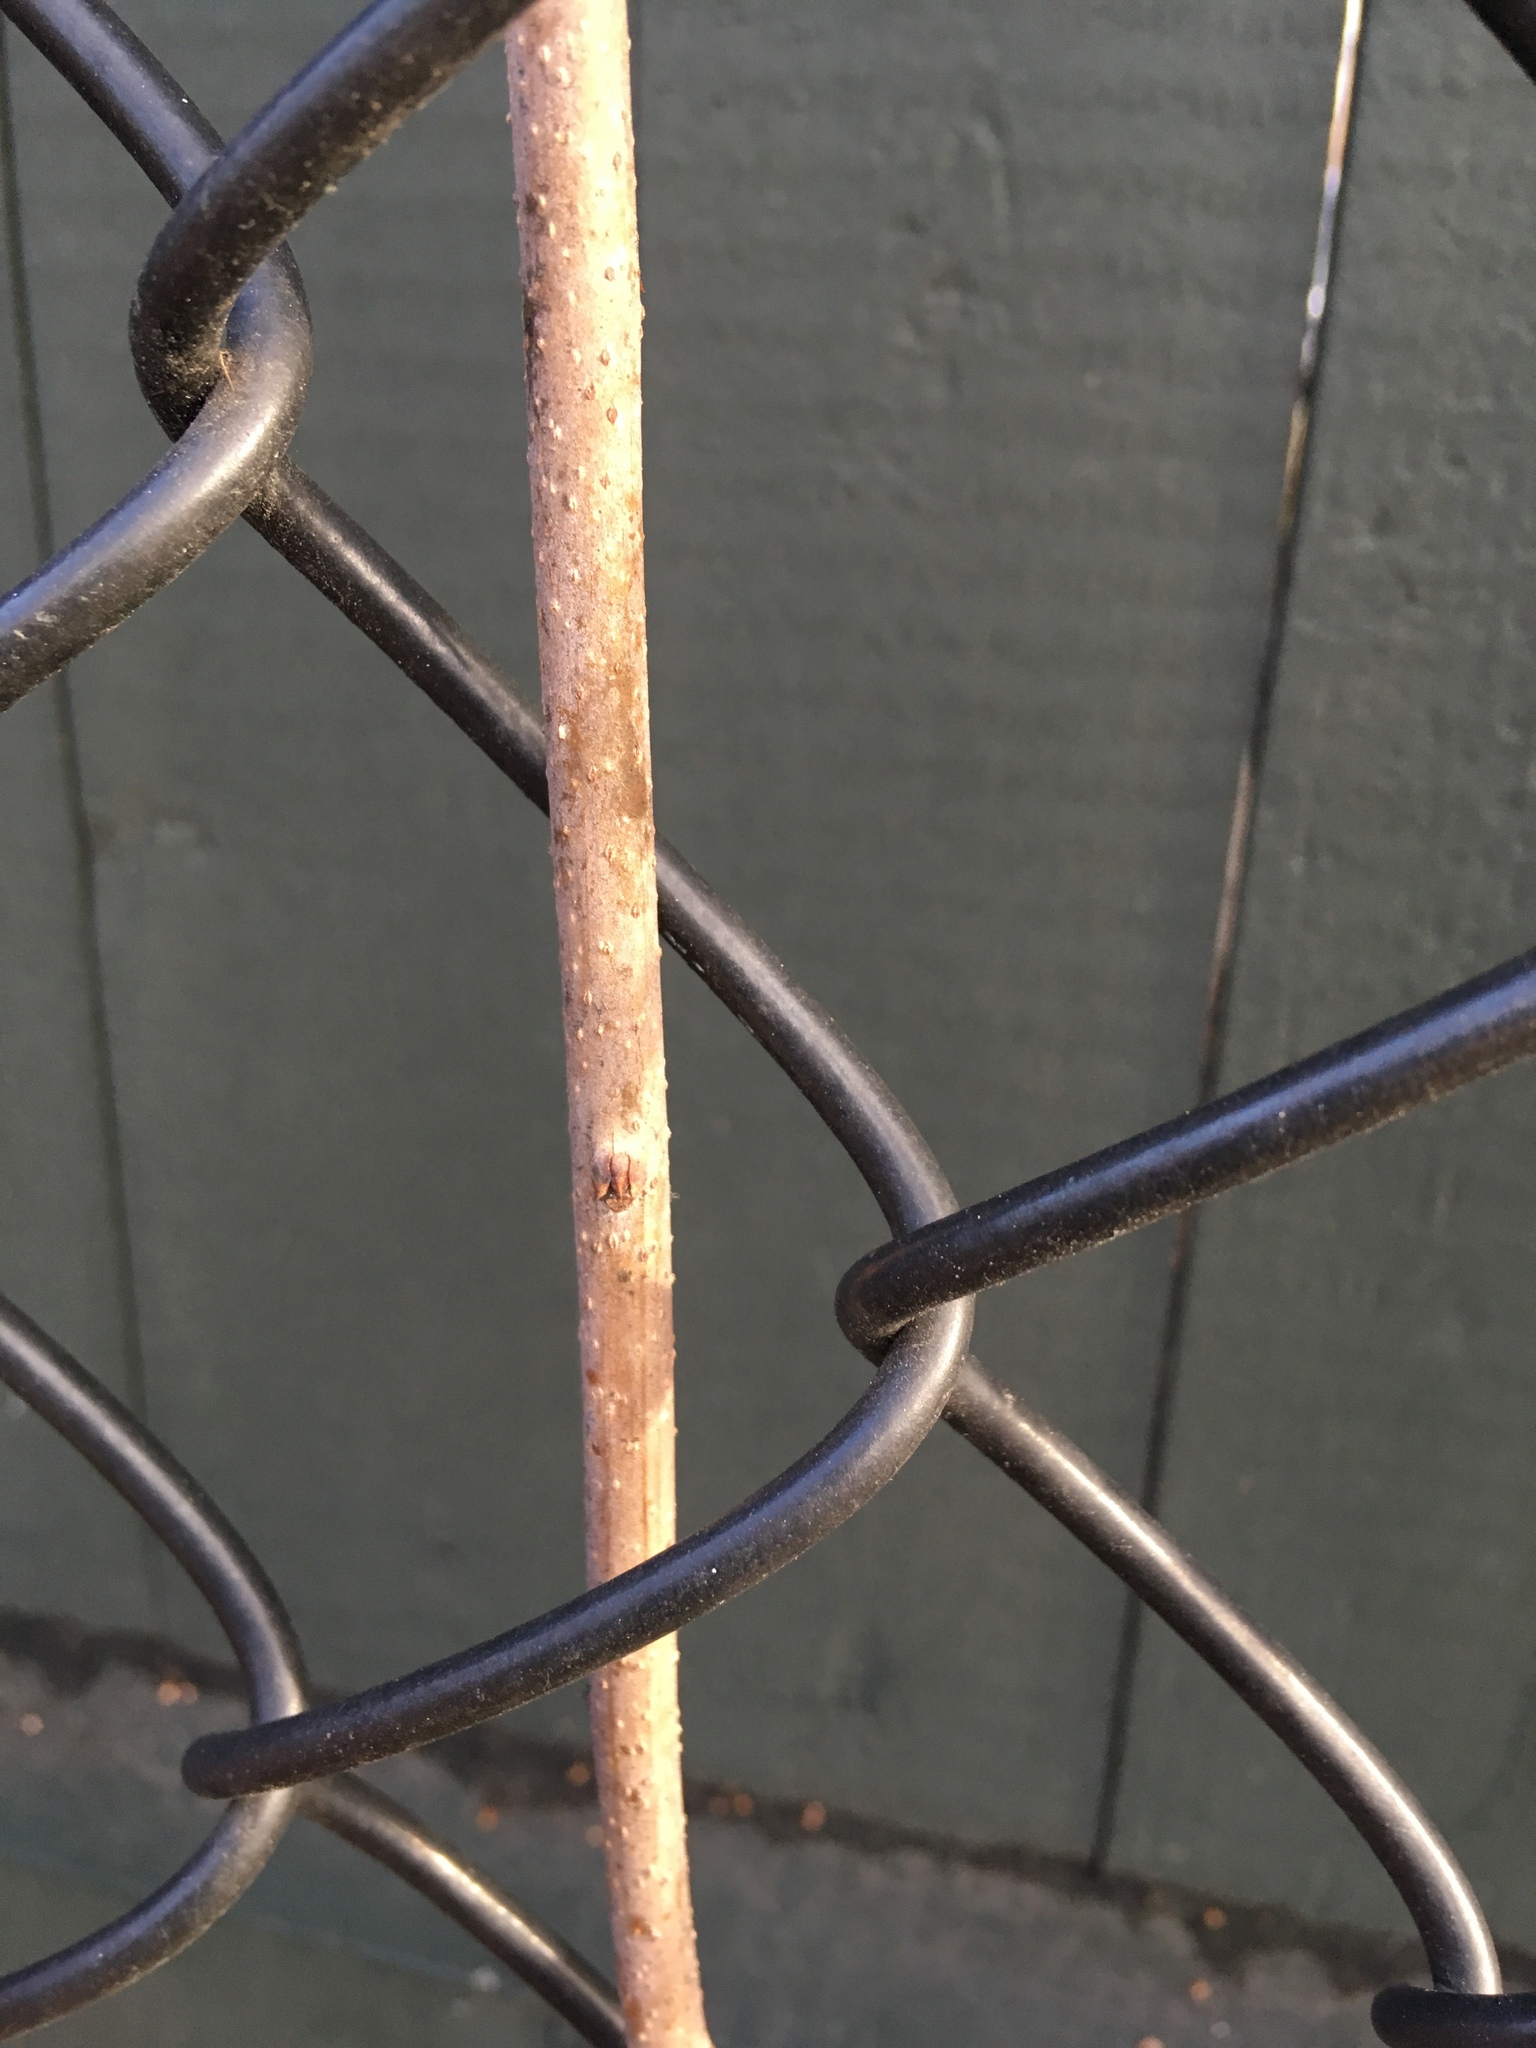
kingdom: Plantae
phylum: Tracheophyta
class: Magnoliopsida
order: Celastrales
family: Celastraceae
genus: Celastrus
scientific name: Celastrus orbiculatus
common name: Oriental bittersweet
